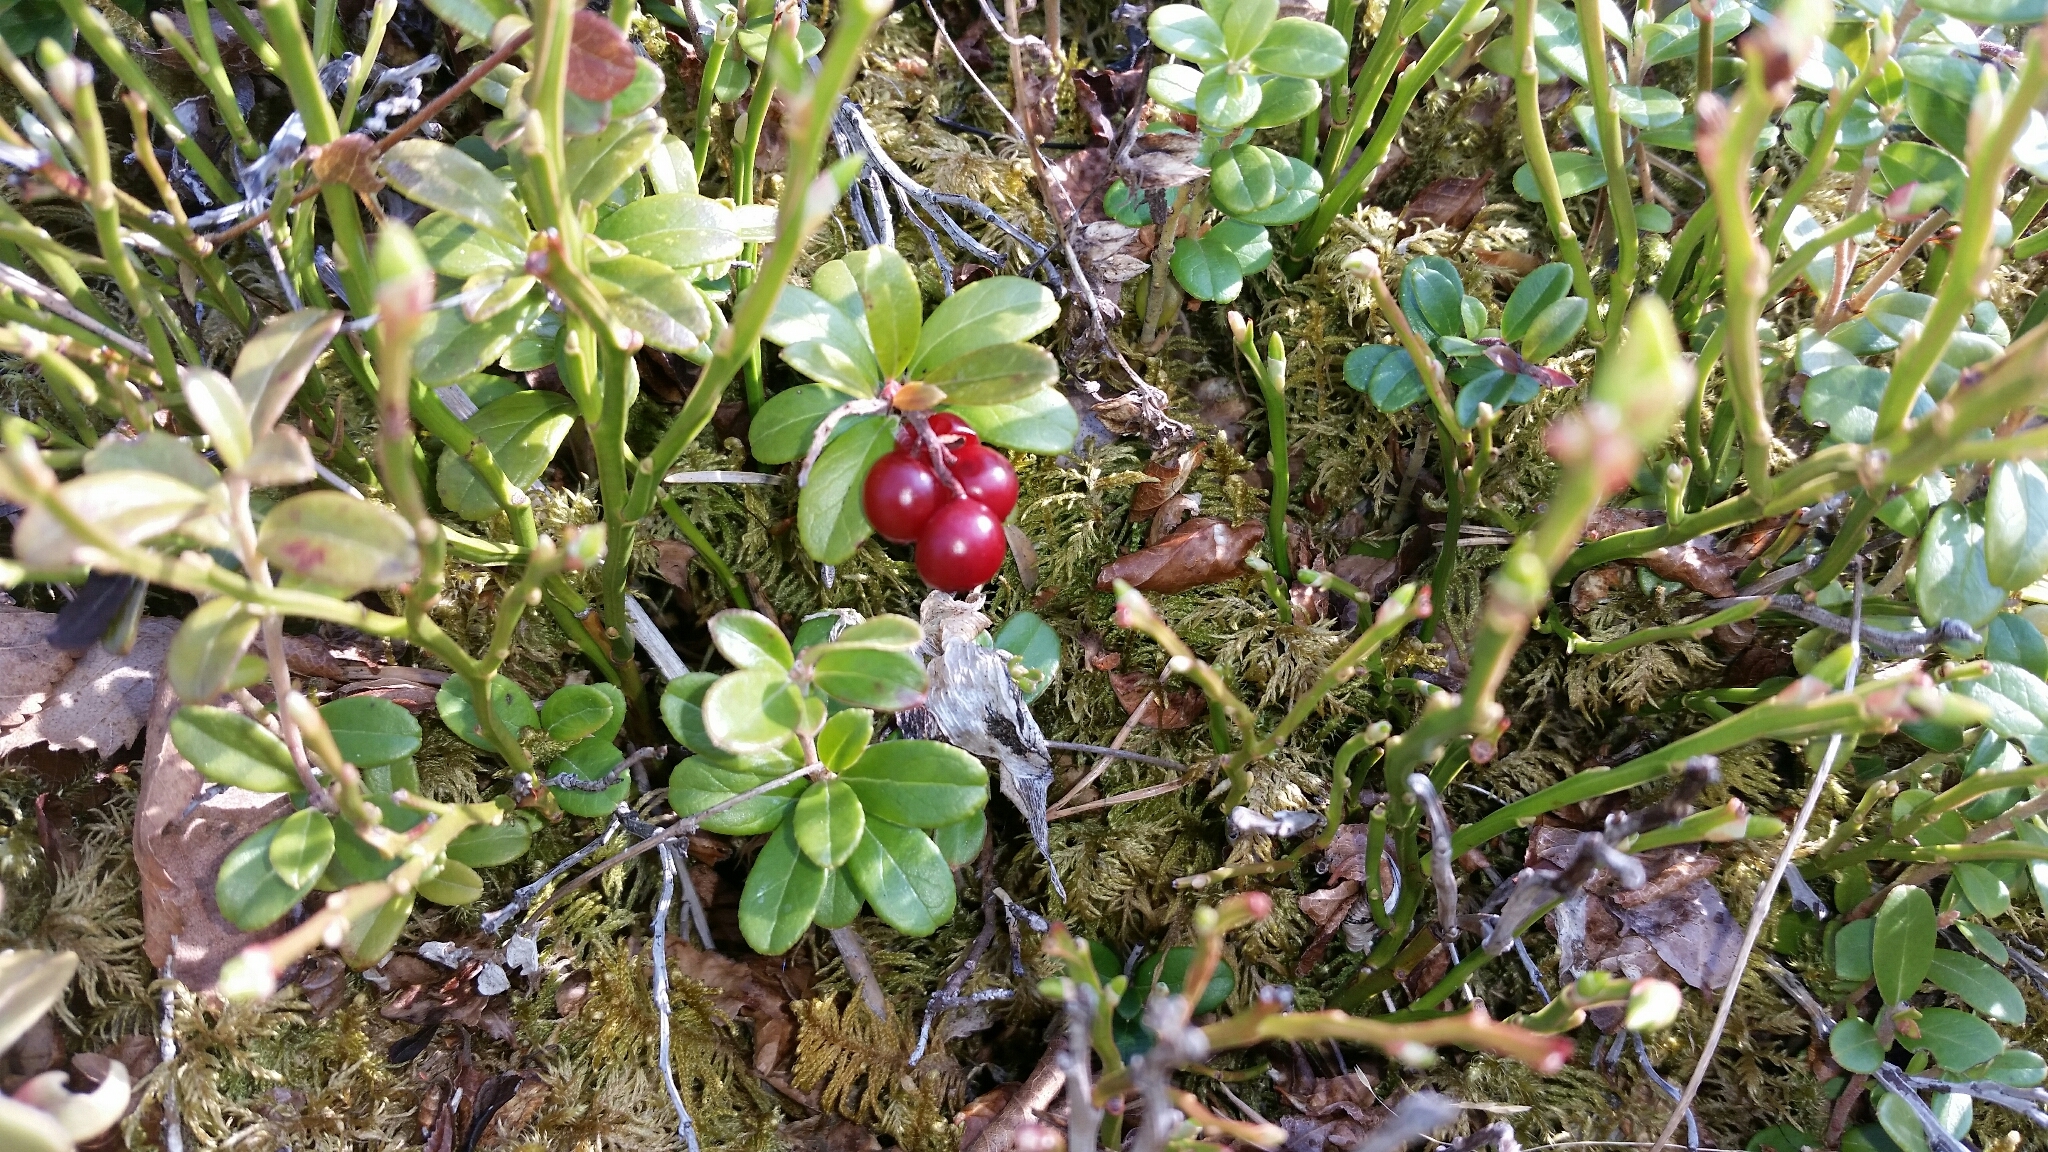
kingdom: Plantae
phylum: Tracheophyta
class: Magnoliopsida
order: Ericales
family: Ericaceae
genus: Vaccinium
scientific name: Vaccinium vitis-idaea
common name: Cowberry
